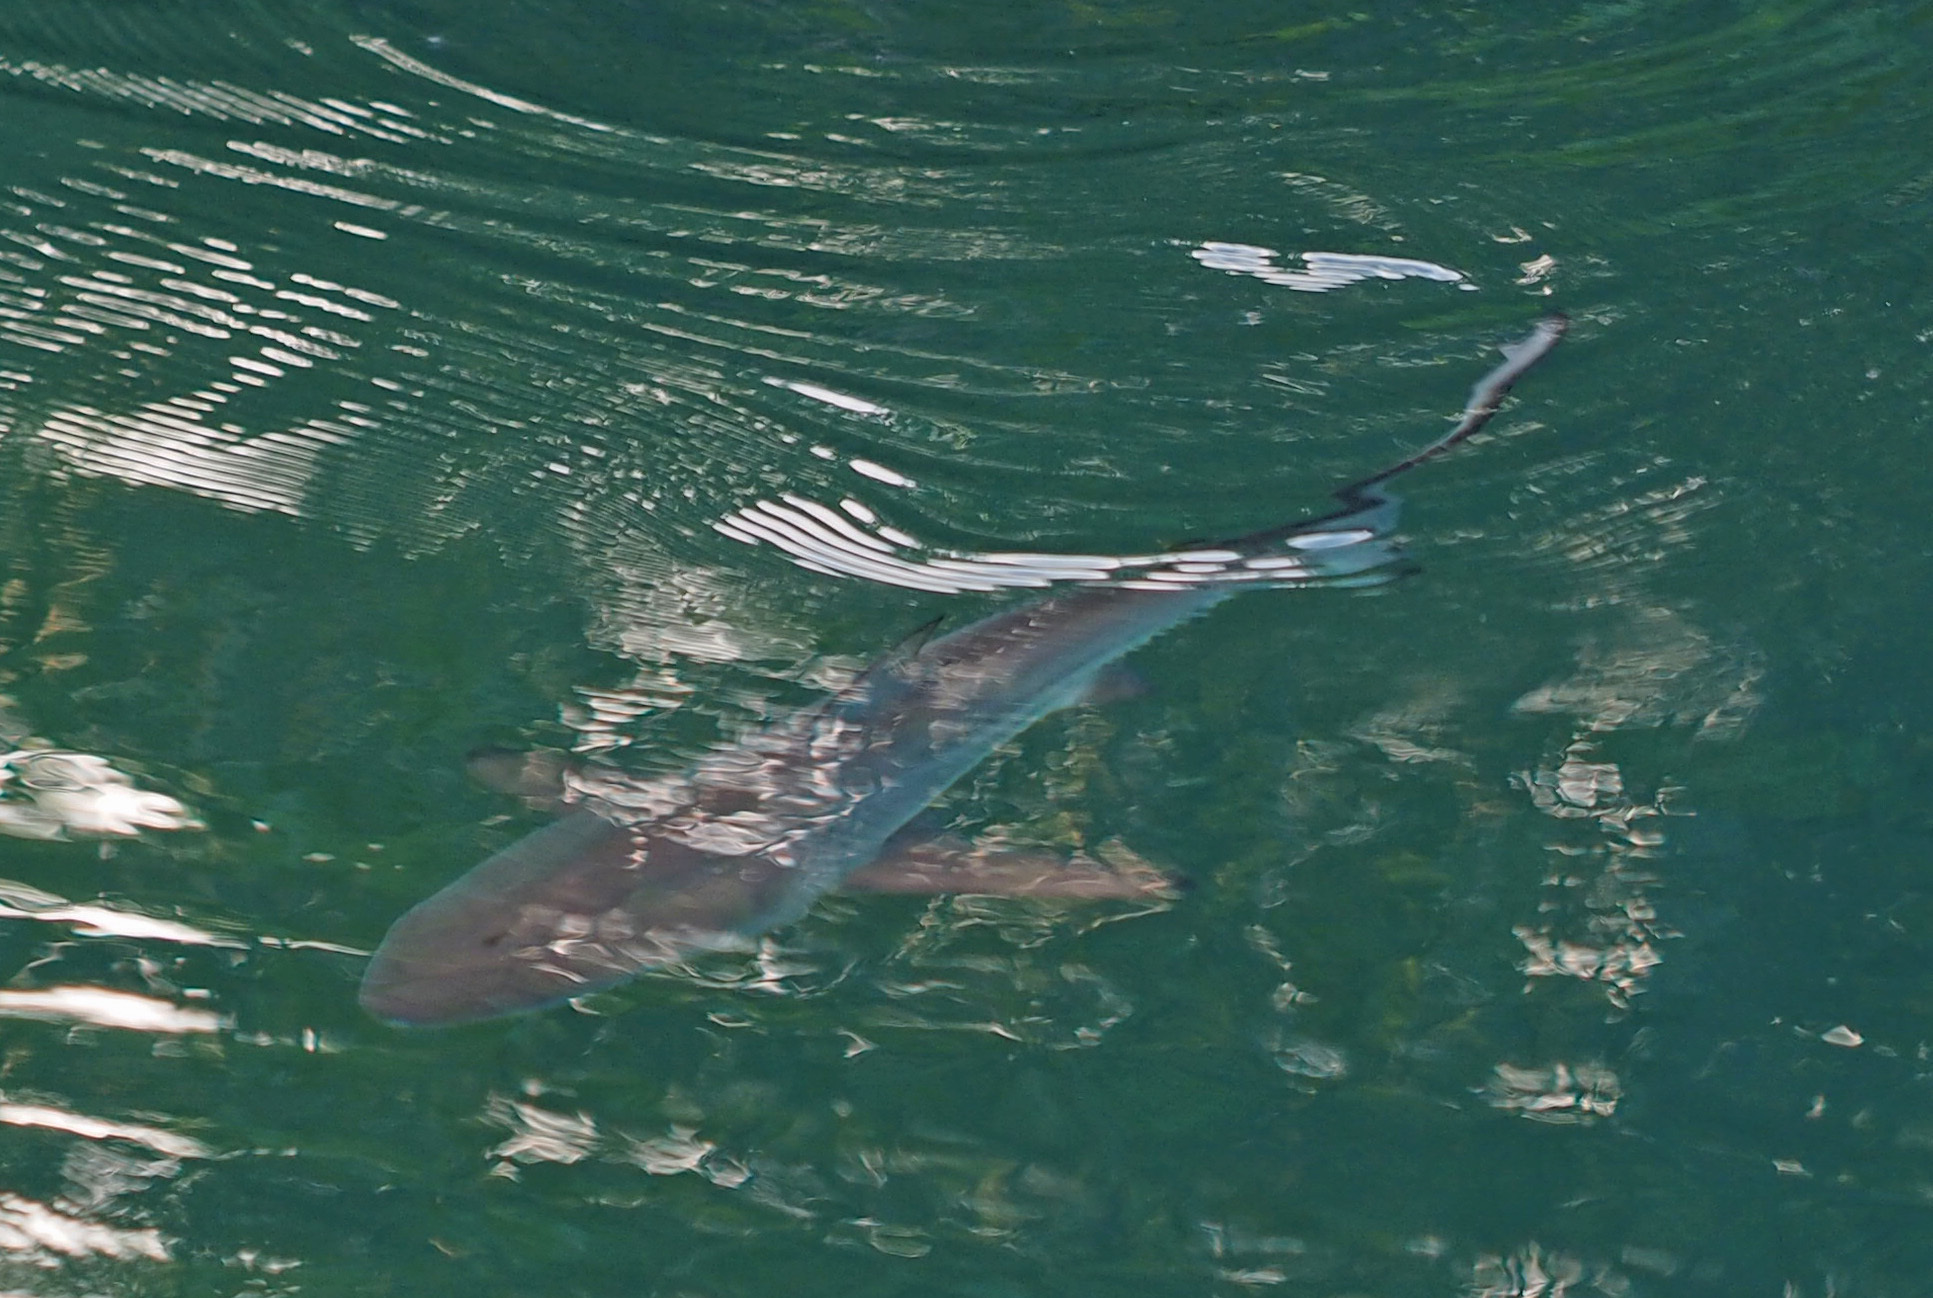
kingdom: Animalia
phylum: Chordata
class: Elasmobranchii
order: Carcharhiniformes
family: Carcharhinidae
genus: Carcharhinus
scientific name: Carcharhinus limbatus
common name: Blacktip shark
